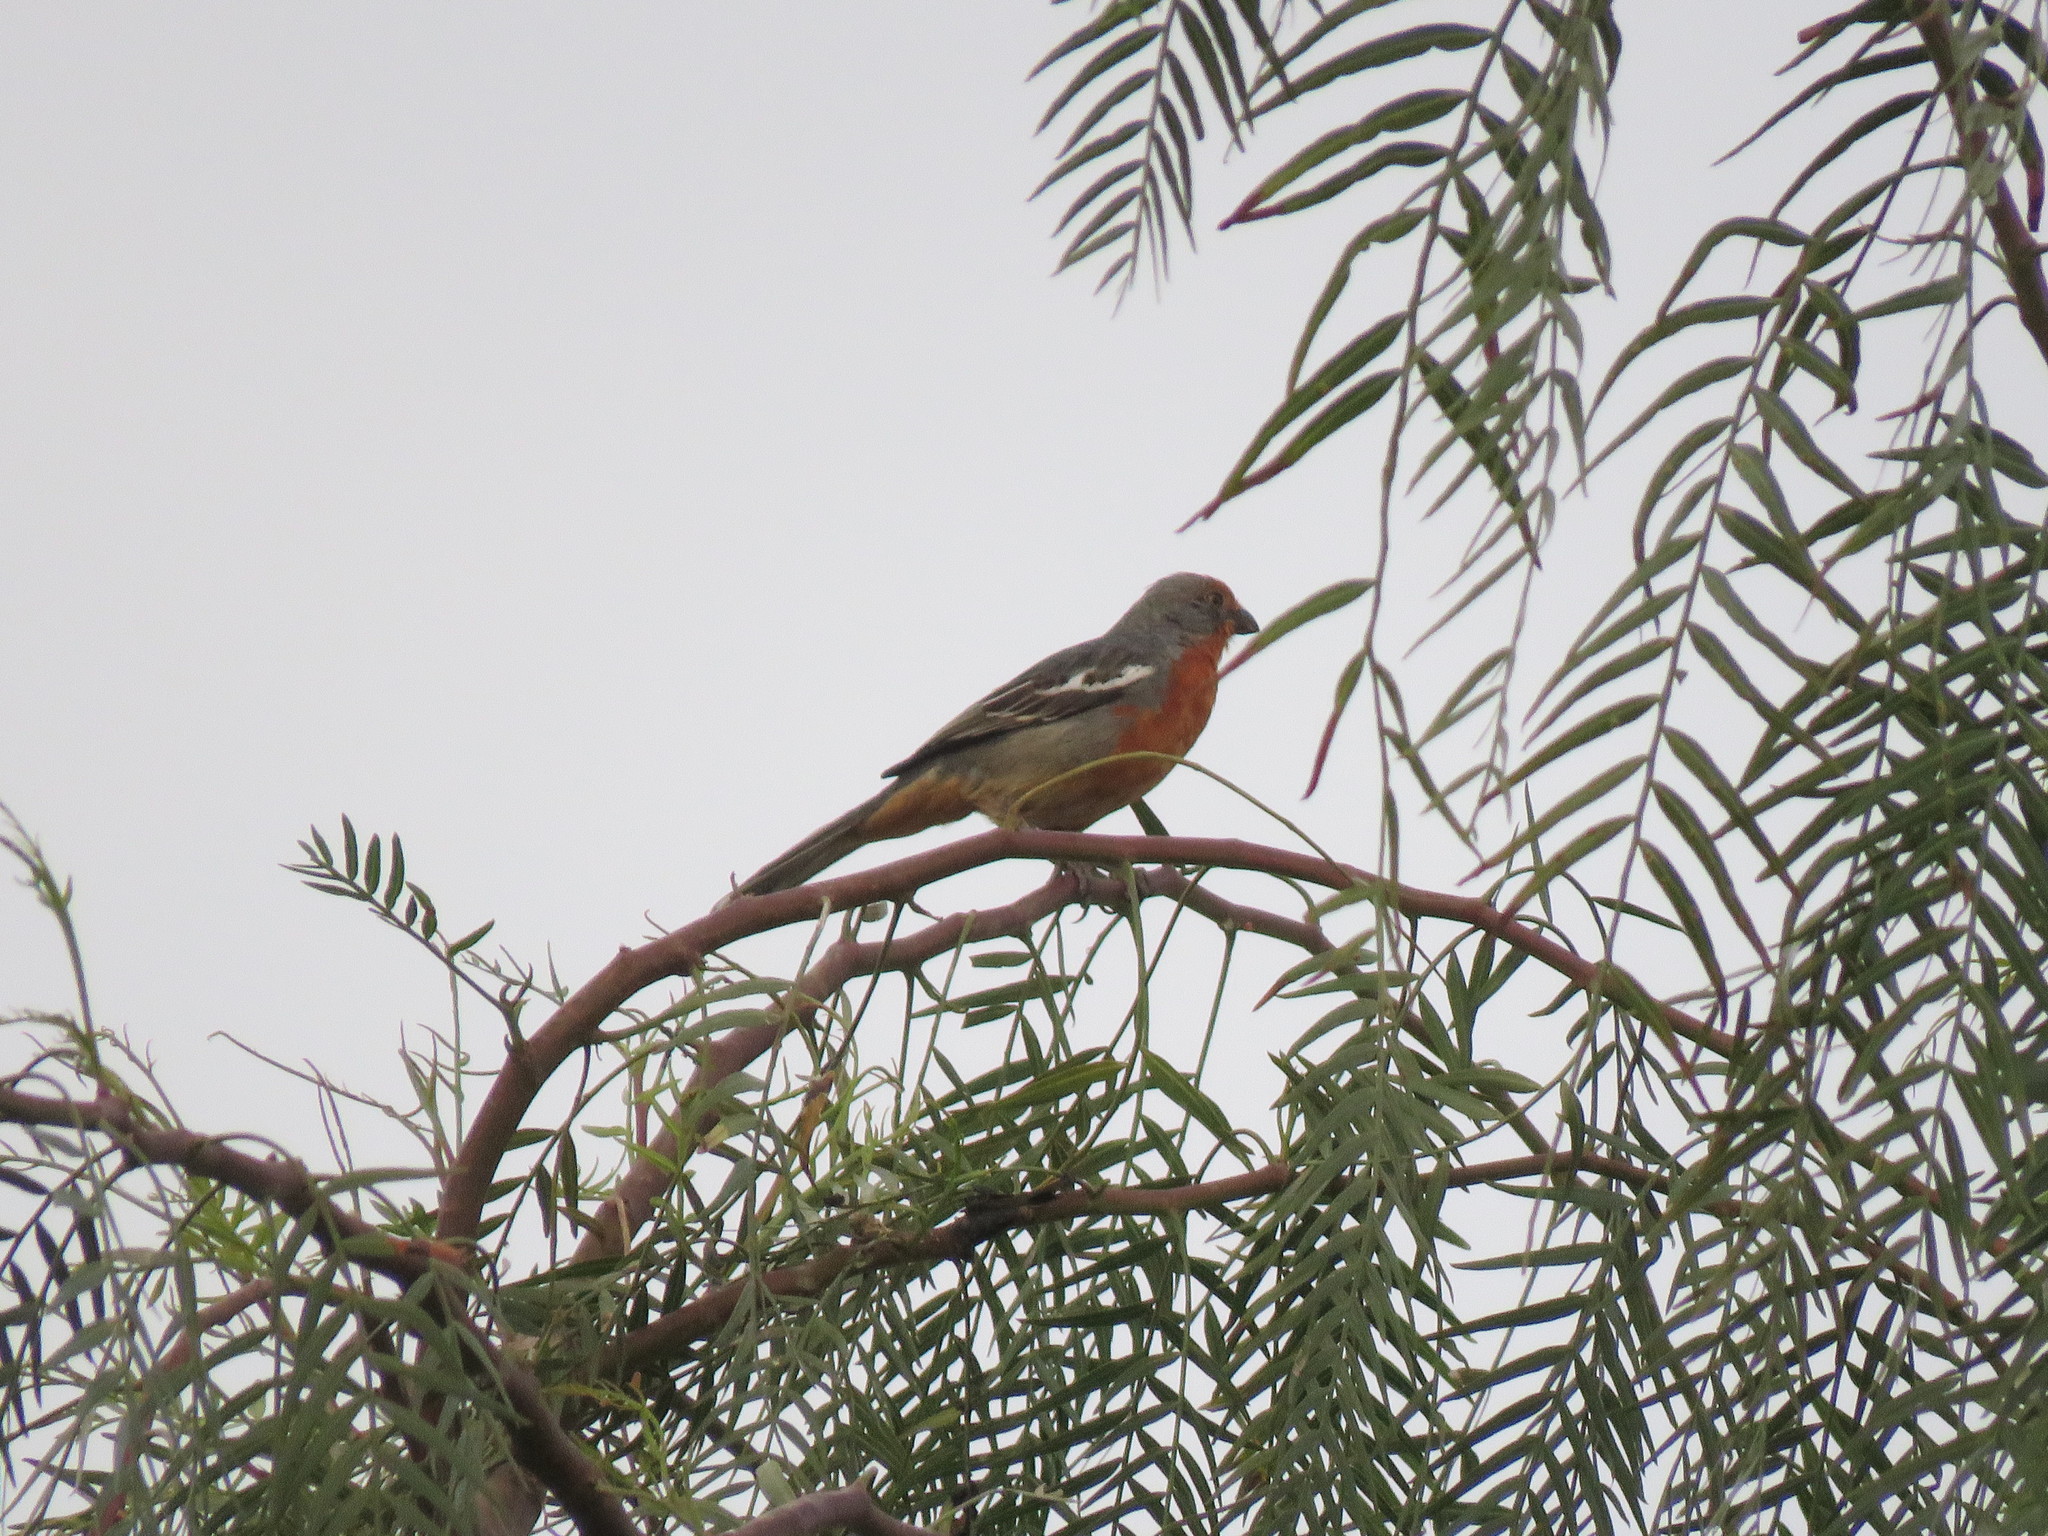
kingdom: Animalia
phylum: Chordata
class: Aves
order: Passeriformes
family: Cotingidae
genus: Phytotoma
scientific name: Phytotoma rutila
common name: White-tipped plantcutter
